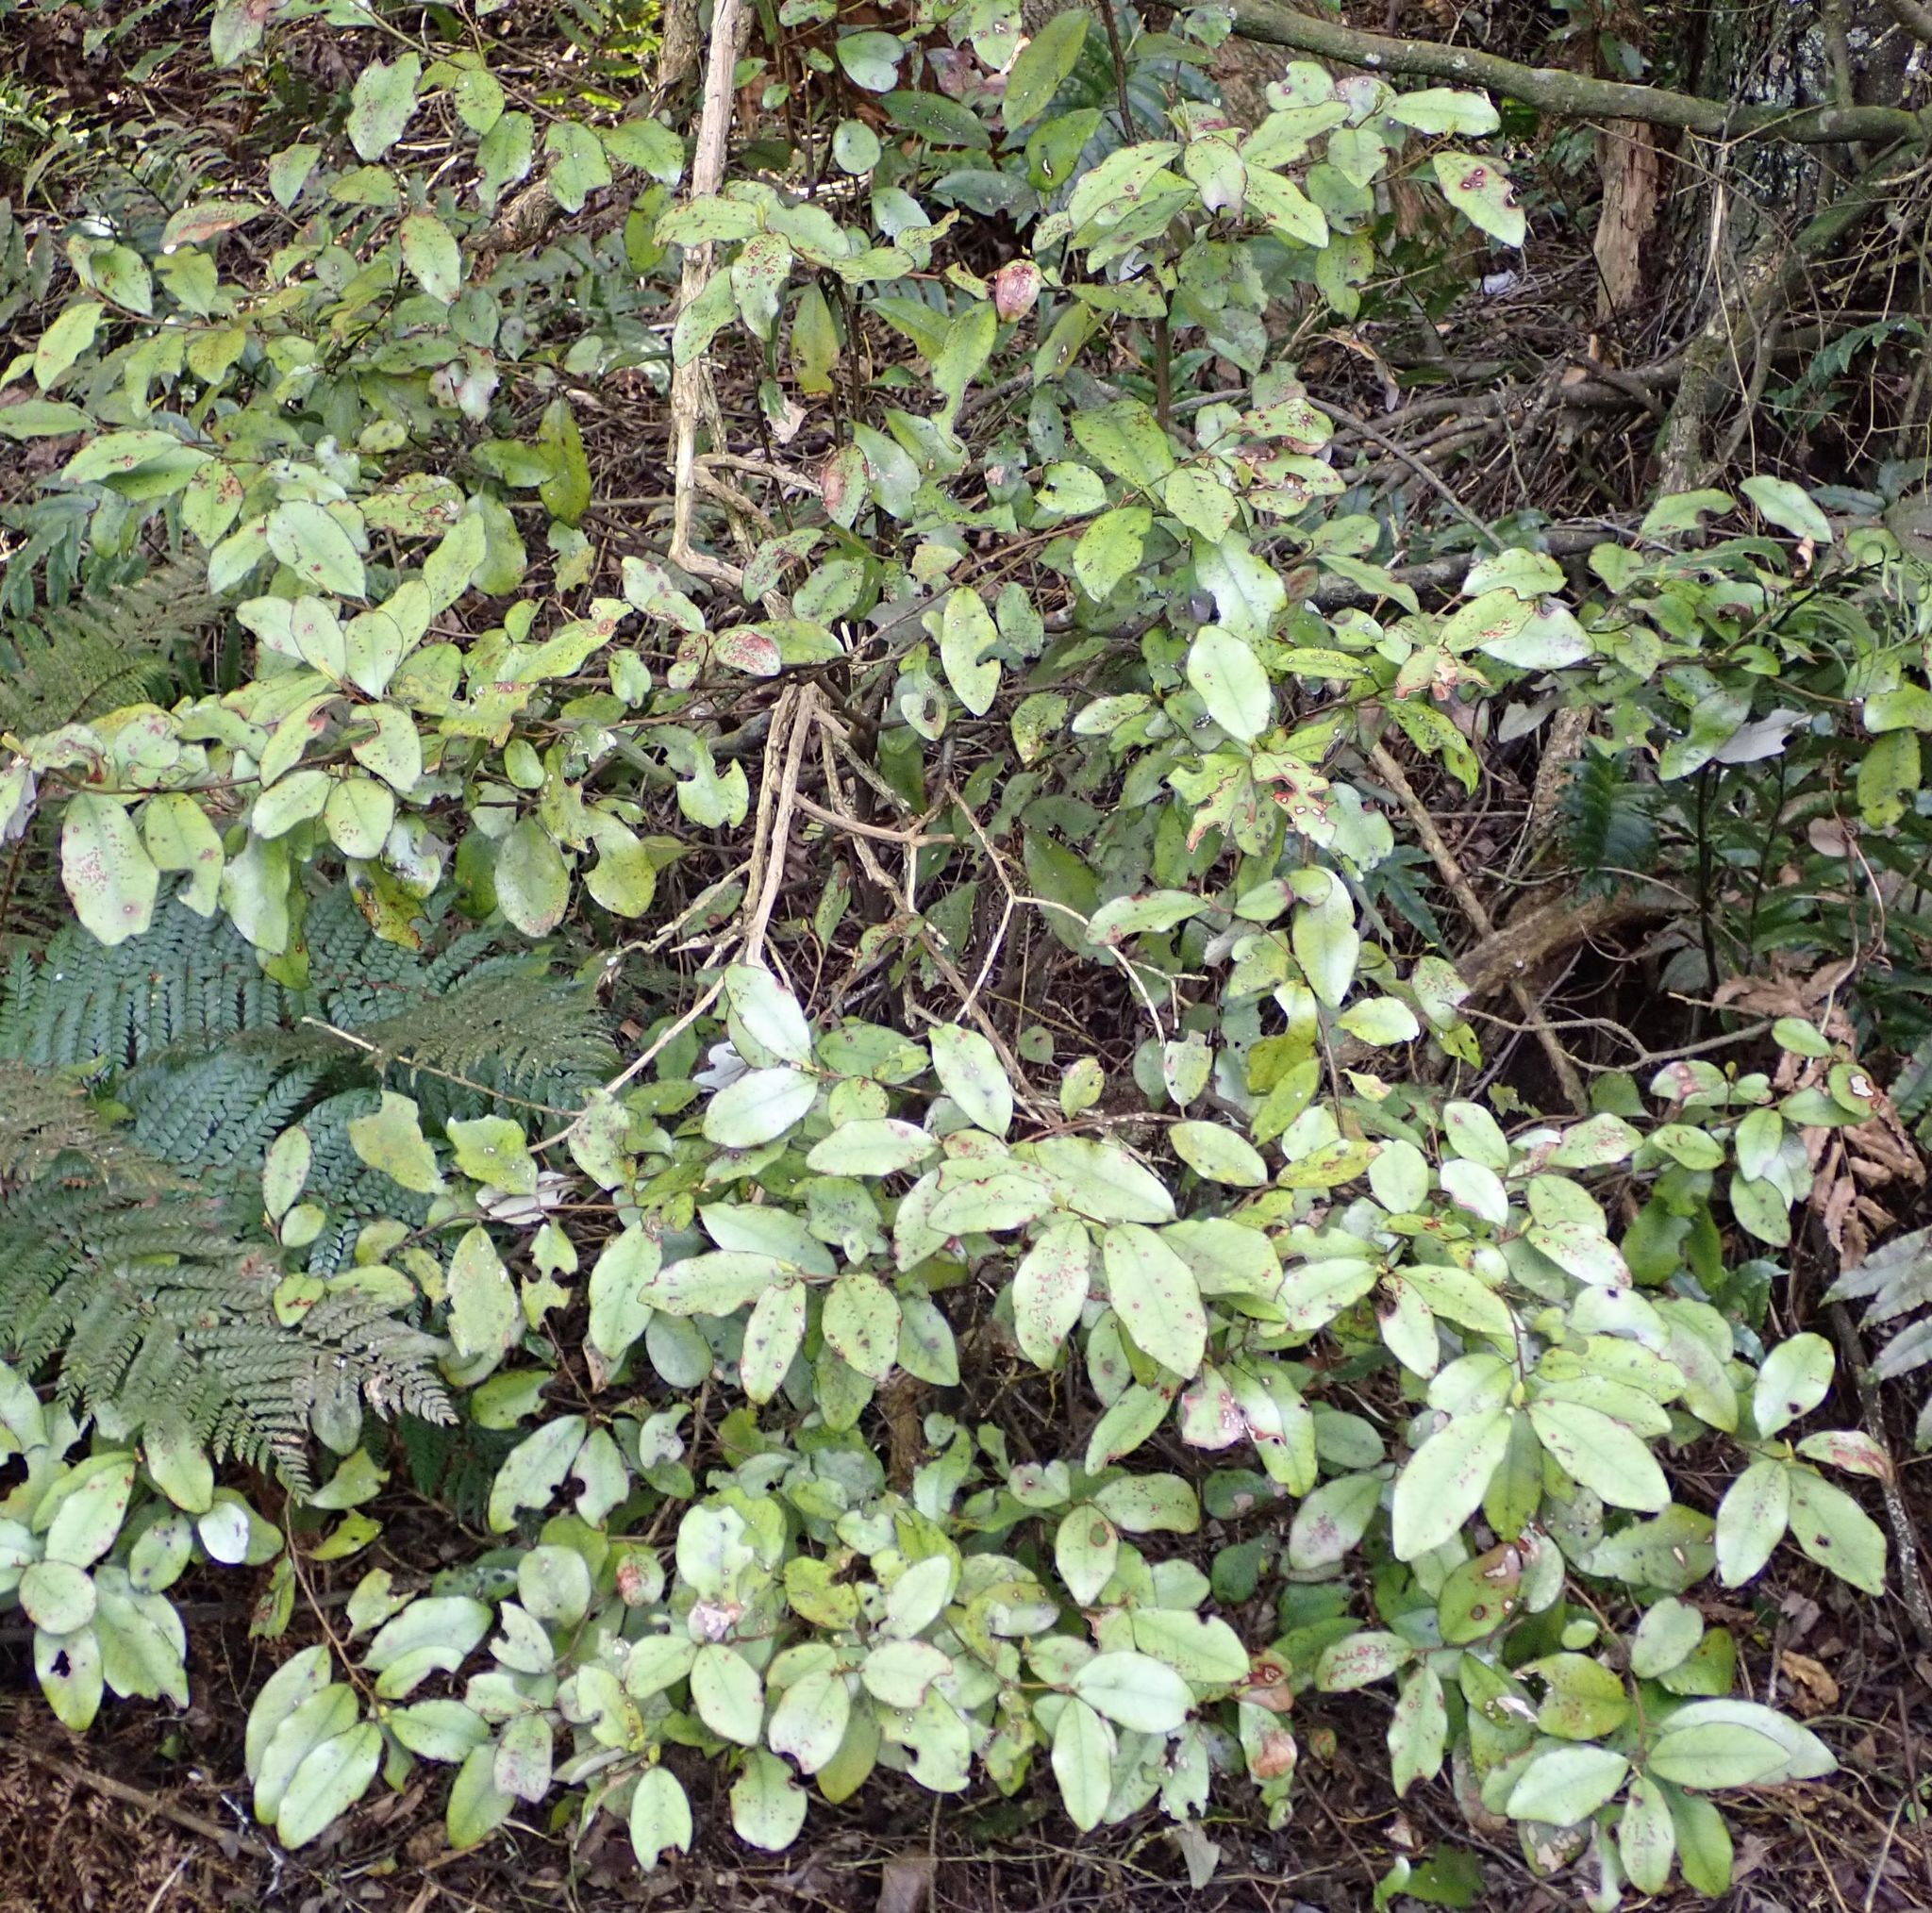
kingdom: Plantae
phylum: Tracheophyta
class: Magnoliopsida
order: Canellales
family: Winteraceae
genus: Pseudowintera
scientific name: Pseudowintera colorata
